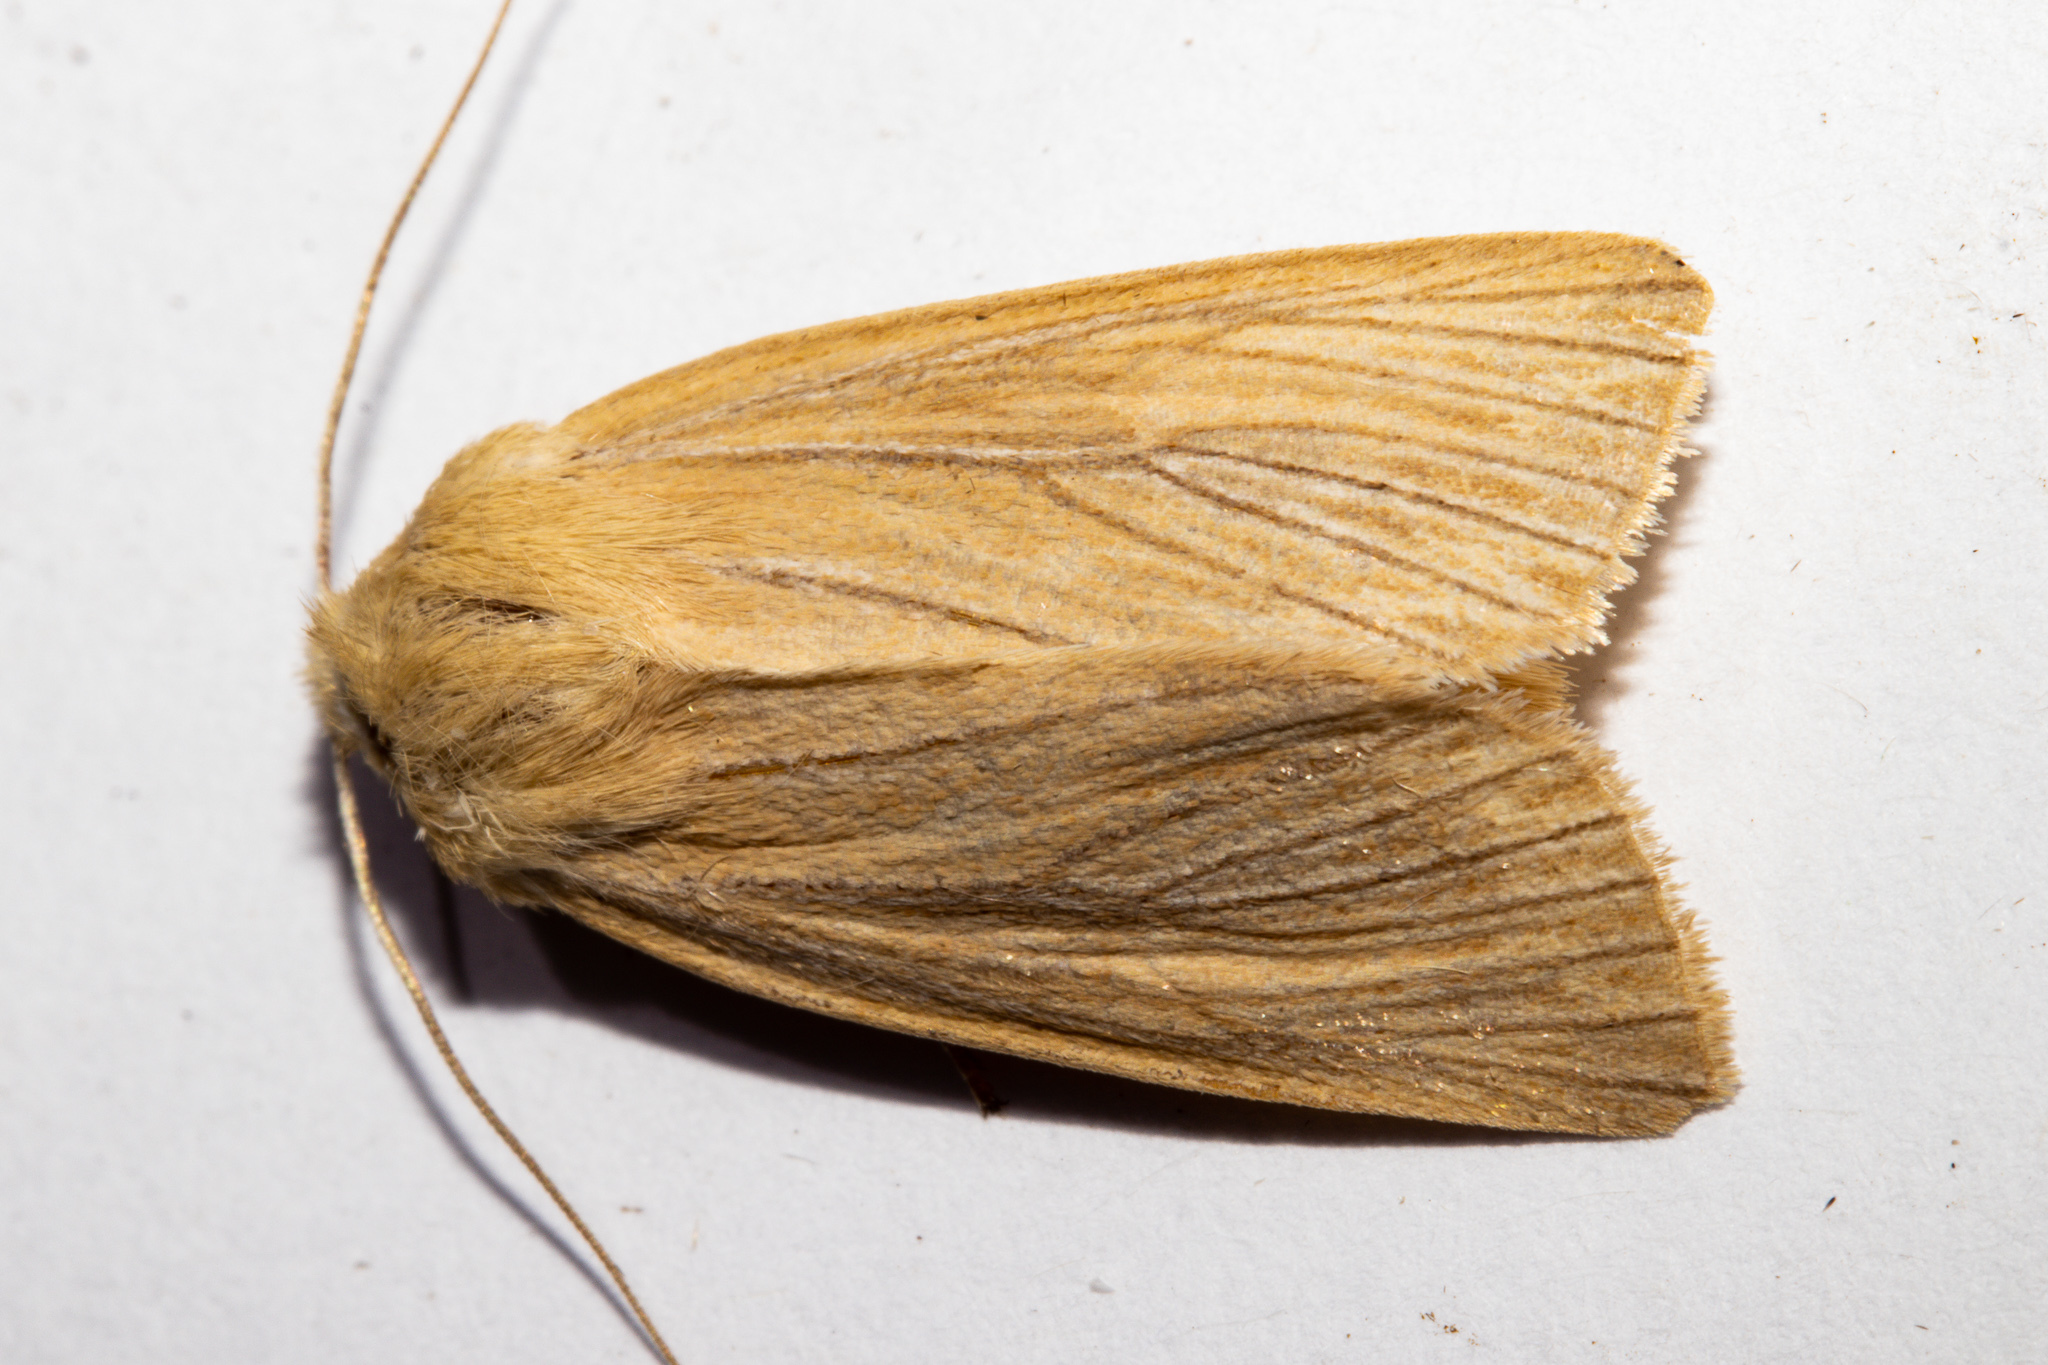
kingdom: Animalia
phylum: Arthropoda
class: Insecta
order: Lepidoptera
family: Noctuidae
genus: Ichneutica
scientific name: Ichneutica arotis
